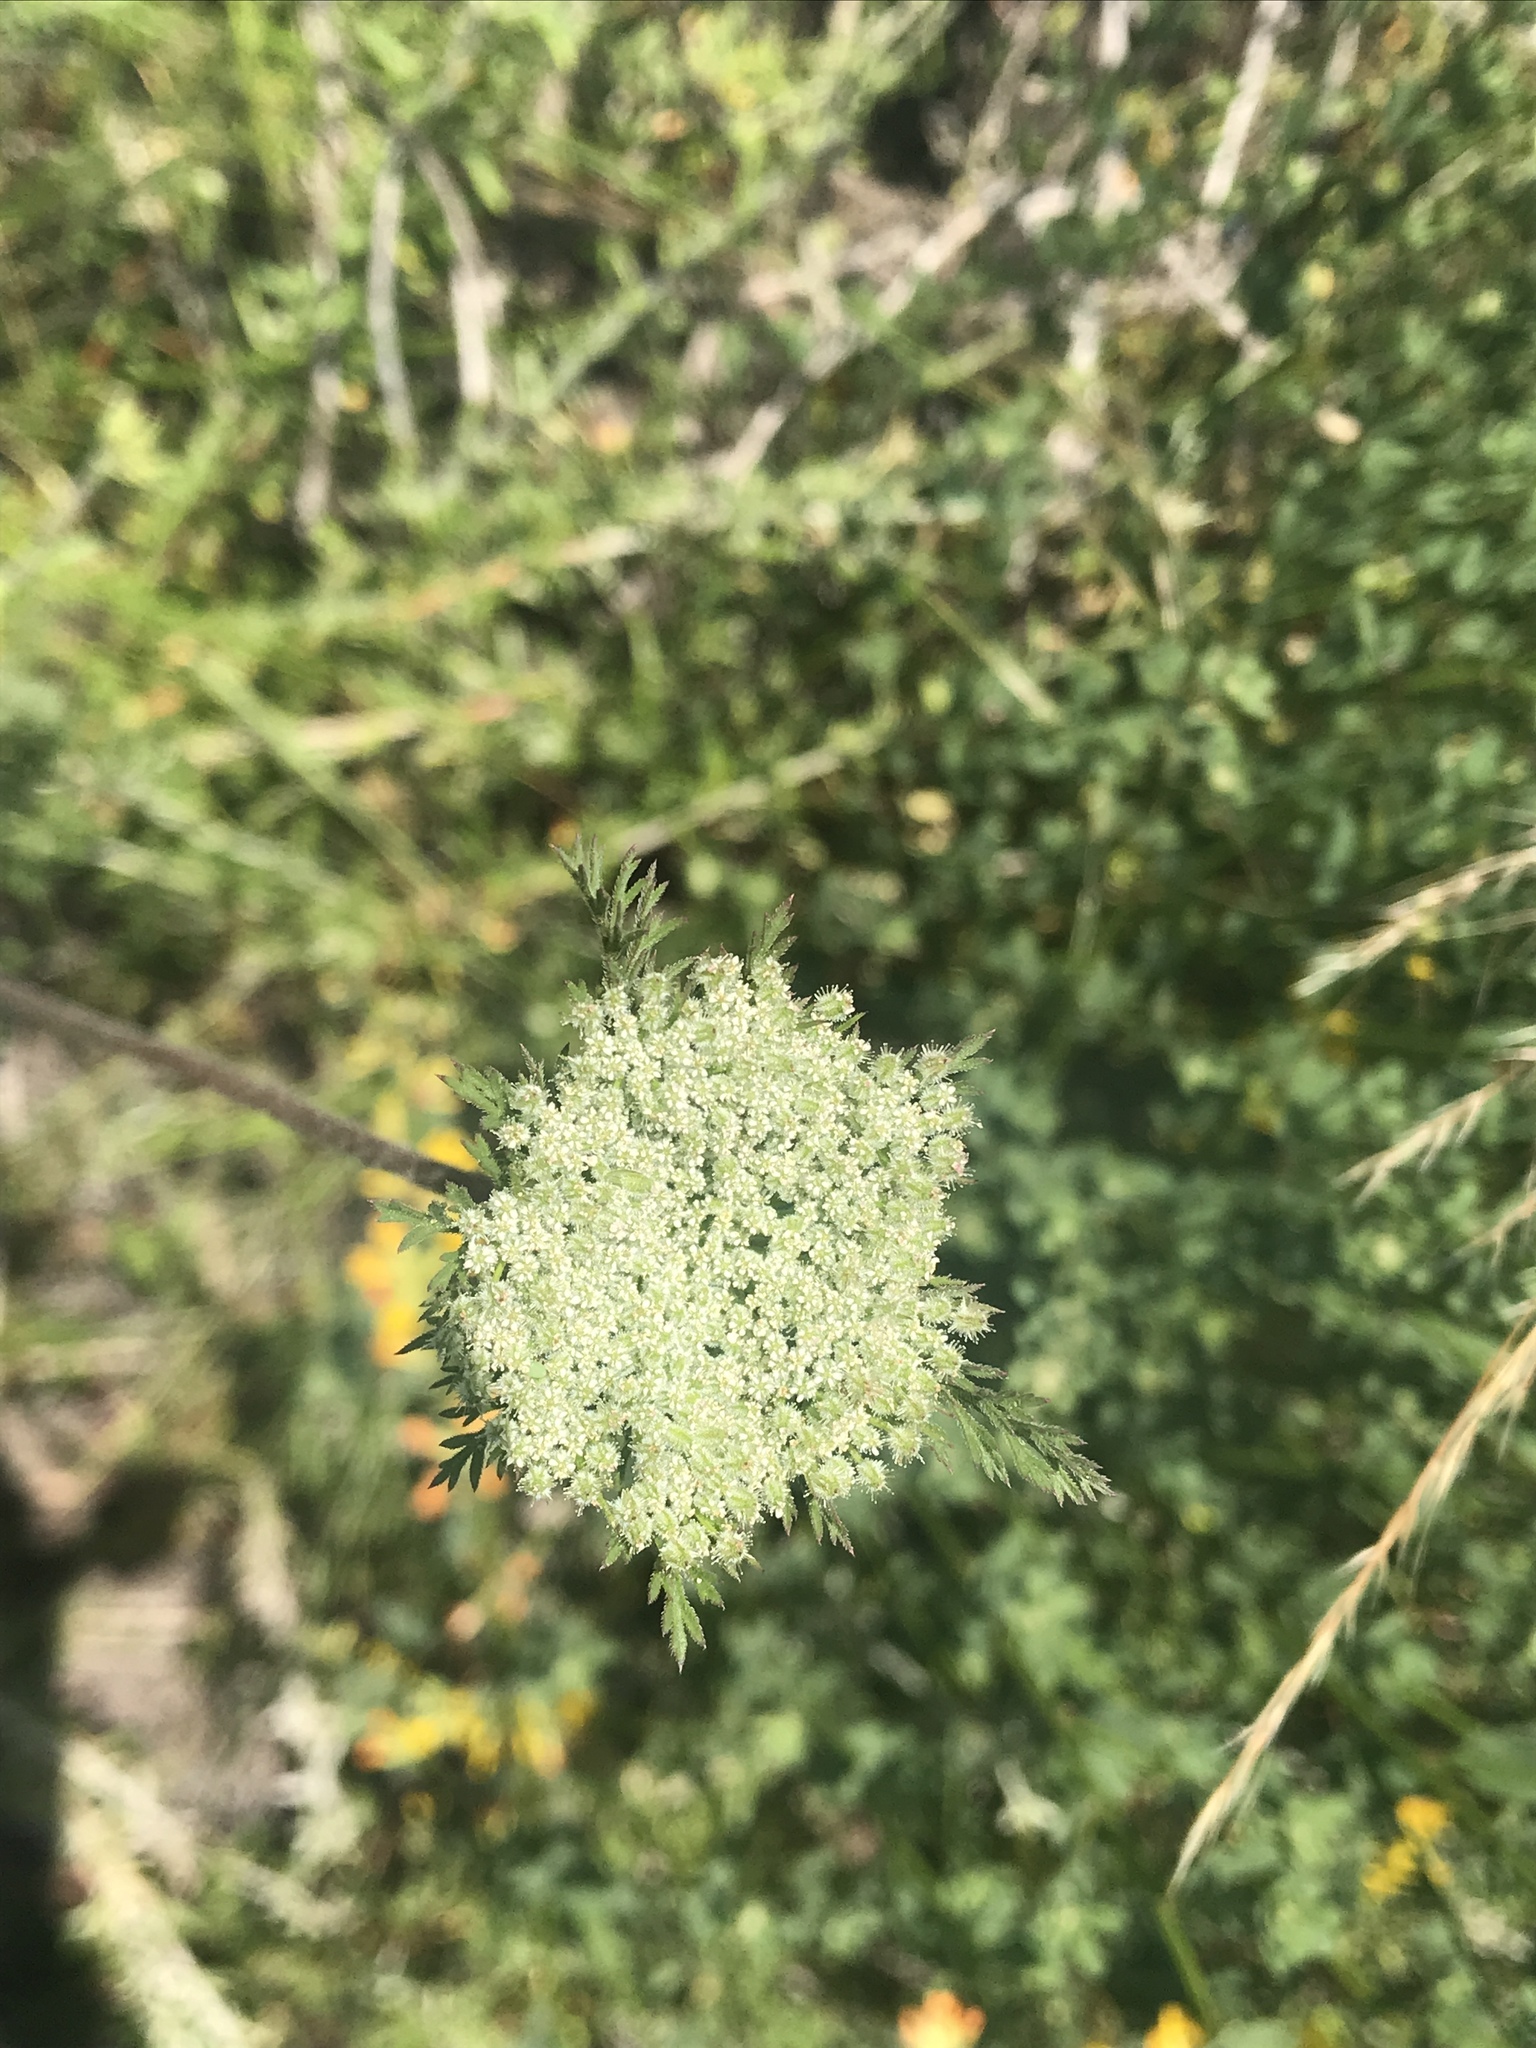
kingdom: Plantae
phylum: Tracheophyta
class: Magnoliopsida
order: Apiales
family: Apiaceae
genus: Daucus
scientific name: Daucus pusillus
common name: Southwest wild carrot
